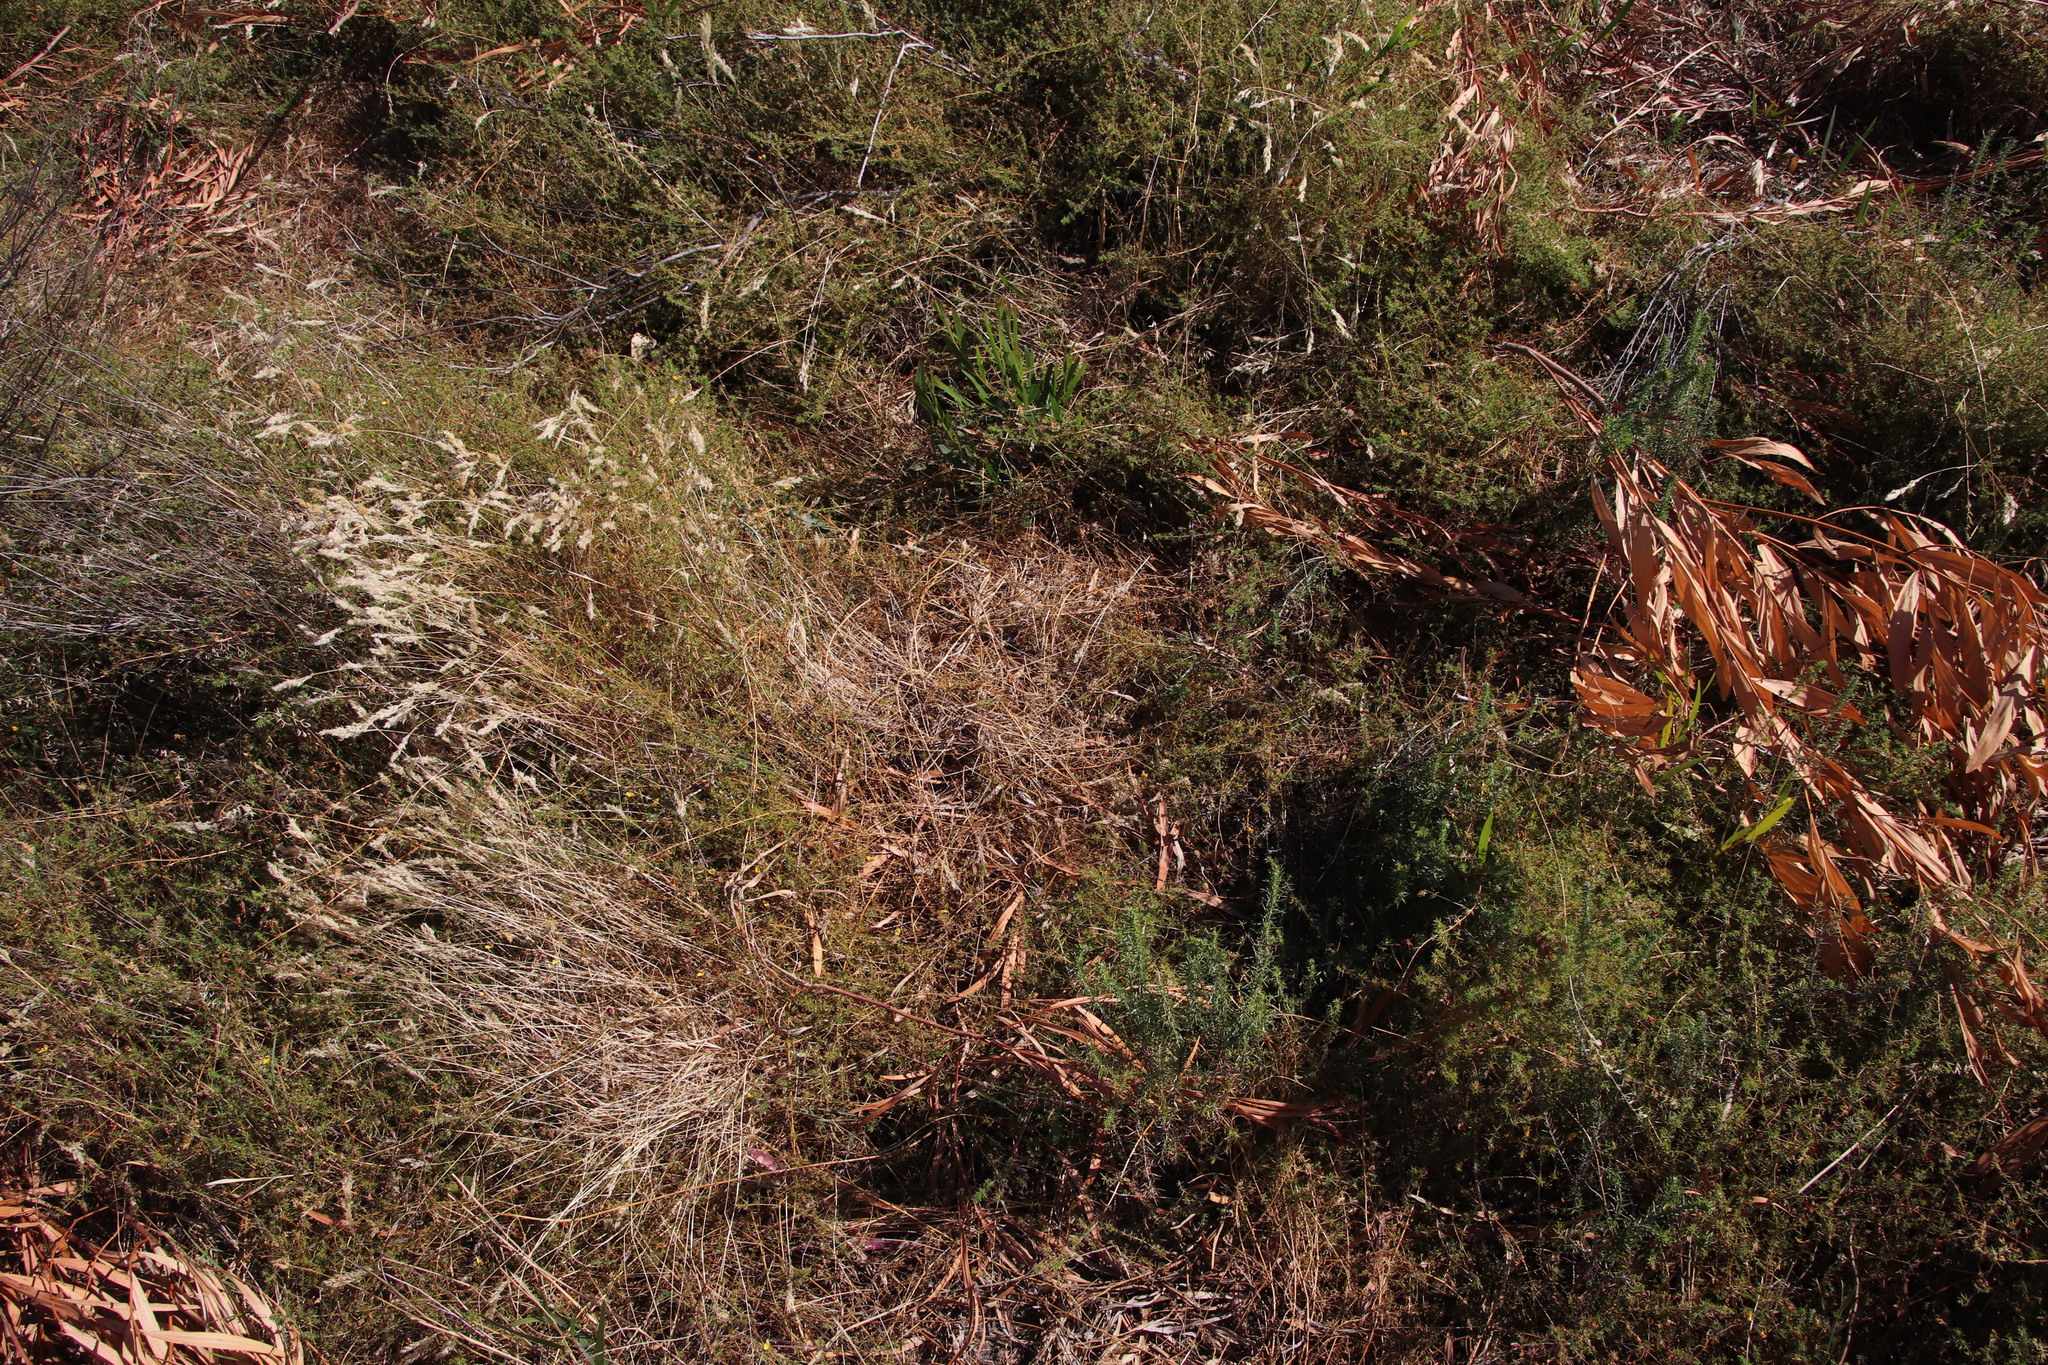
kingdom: Plantae
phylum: Tracheophyta
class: Magnoliopsida
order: Fabales
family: Fabaceae
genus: Acacia
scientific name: Acacia longifolia
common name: Sydney golden wattle
